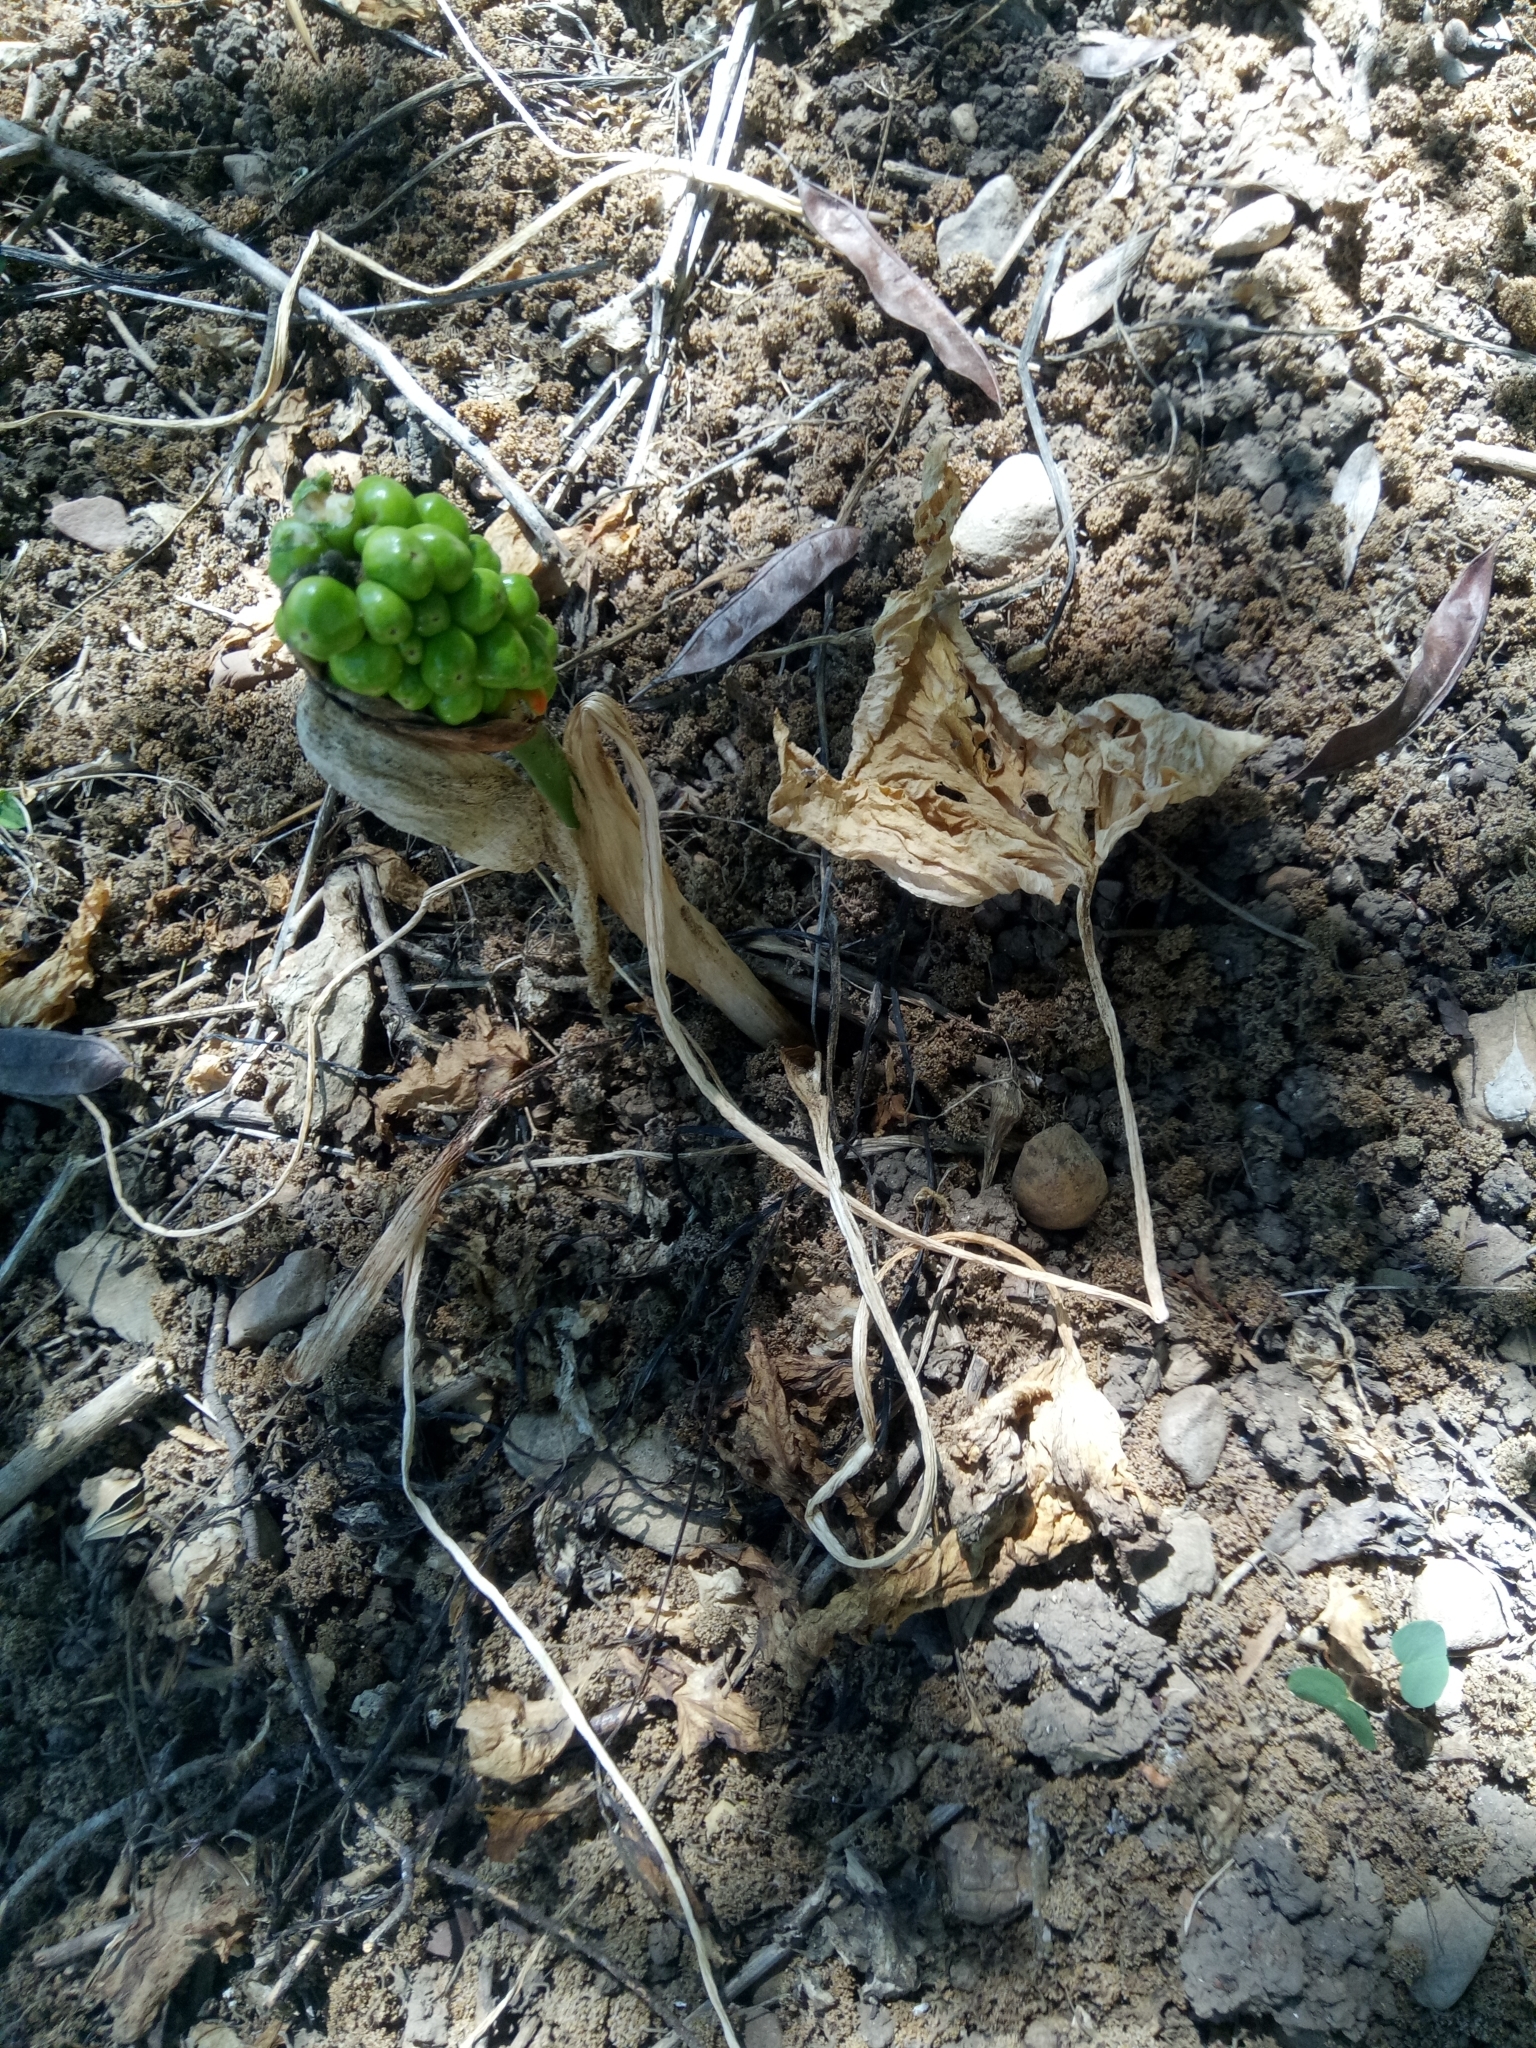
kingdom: Plantae
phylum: Tracheophyta
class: Liliopsida
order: Alismatales
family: Araceae
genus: Arum
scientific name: Arum italicum
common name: Italian lords-and-ladies
